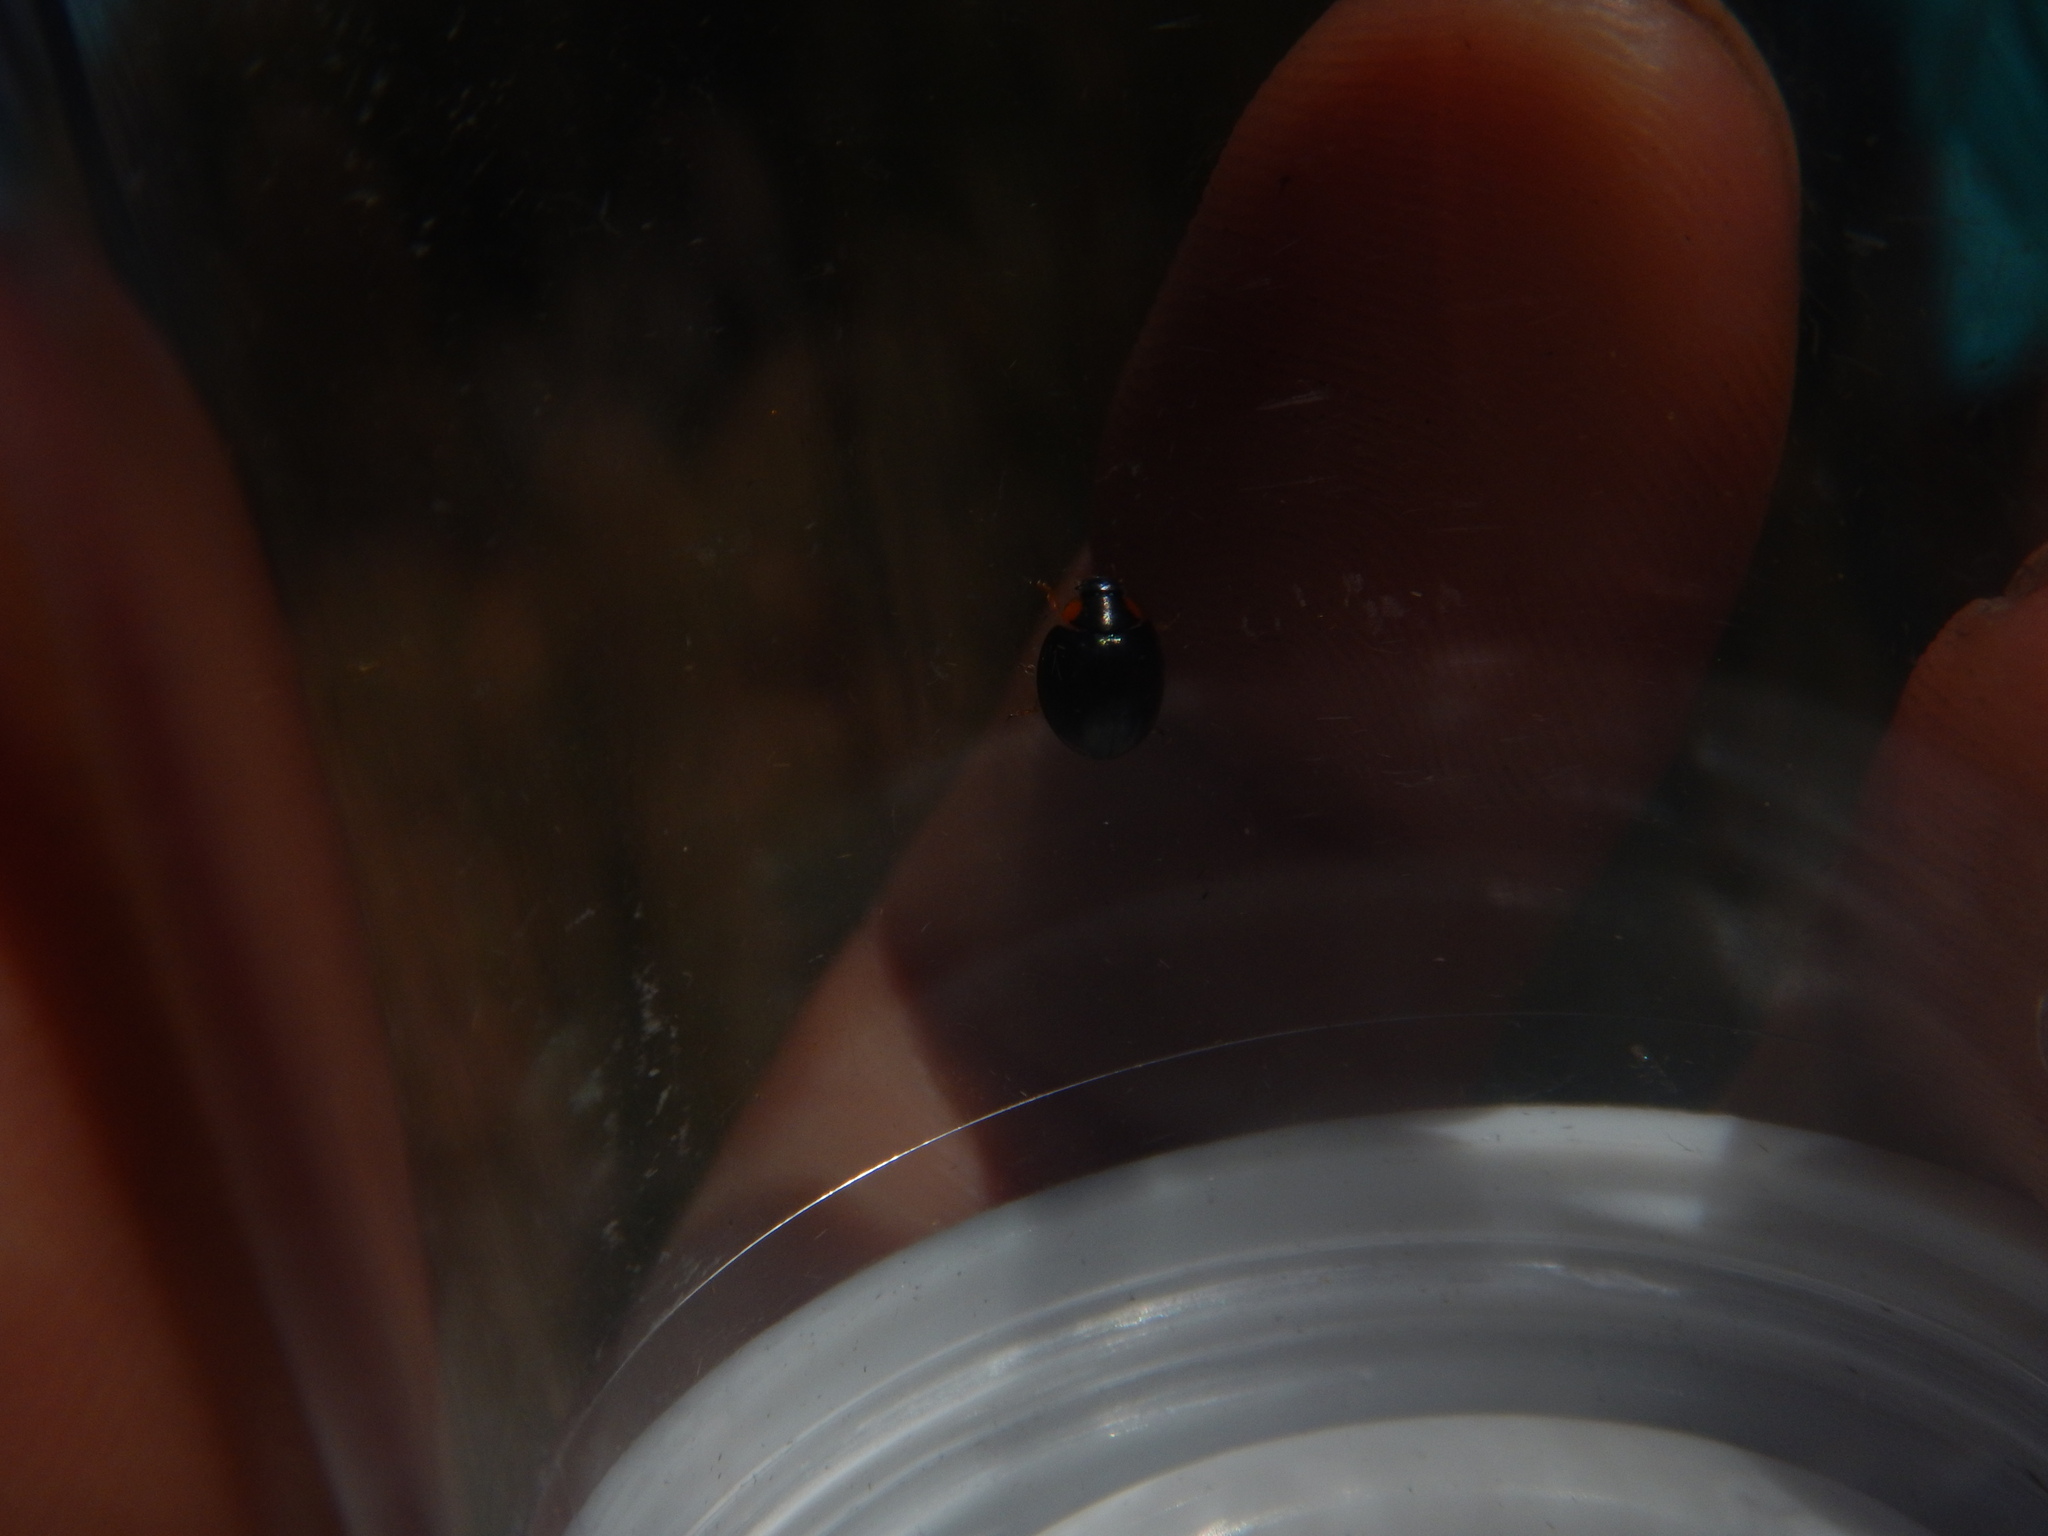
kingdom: Animalia
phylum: Arthropoda
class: Insecta
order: Coleoptera
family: Coccinellidae
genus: Parexochomus
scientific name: Parexochomus nigromaculatus
